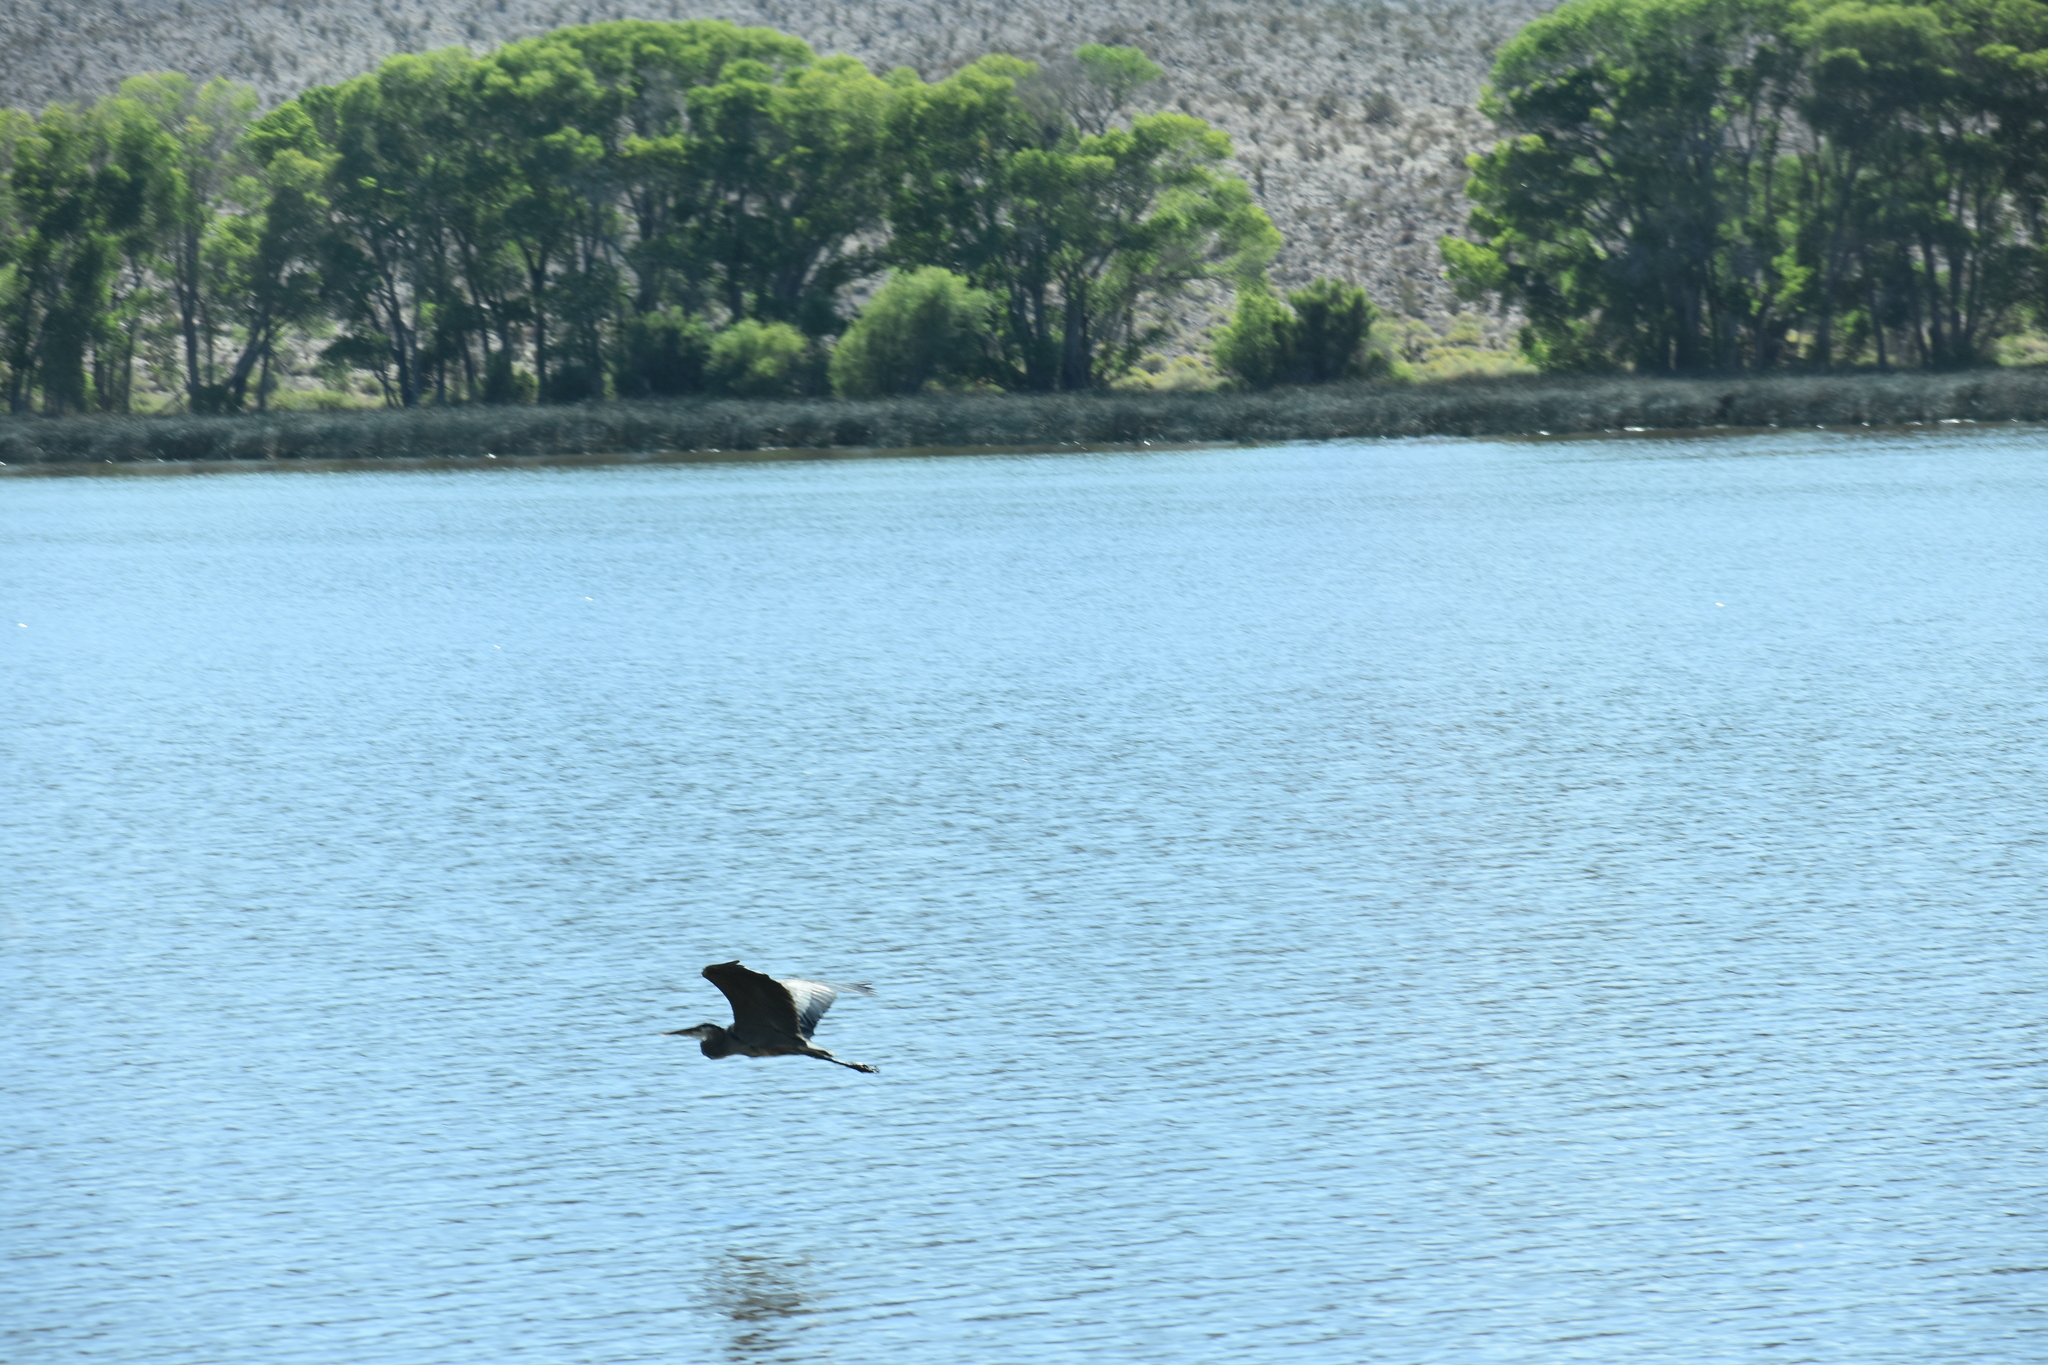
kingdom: Animalia
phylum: Chordata
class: Aves
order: Pelecaniformes
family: Ardeidae
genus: Ardea
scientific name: Ardea herodias
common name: Great blue heron
